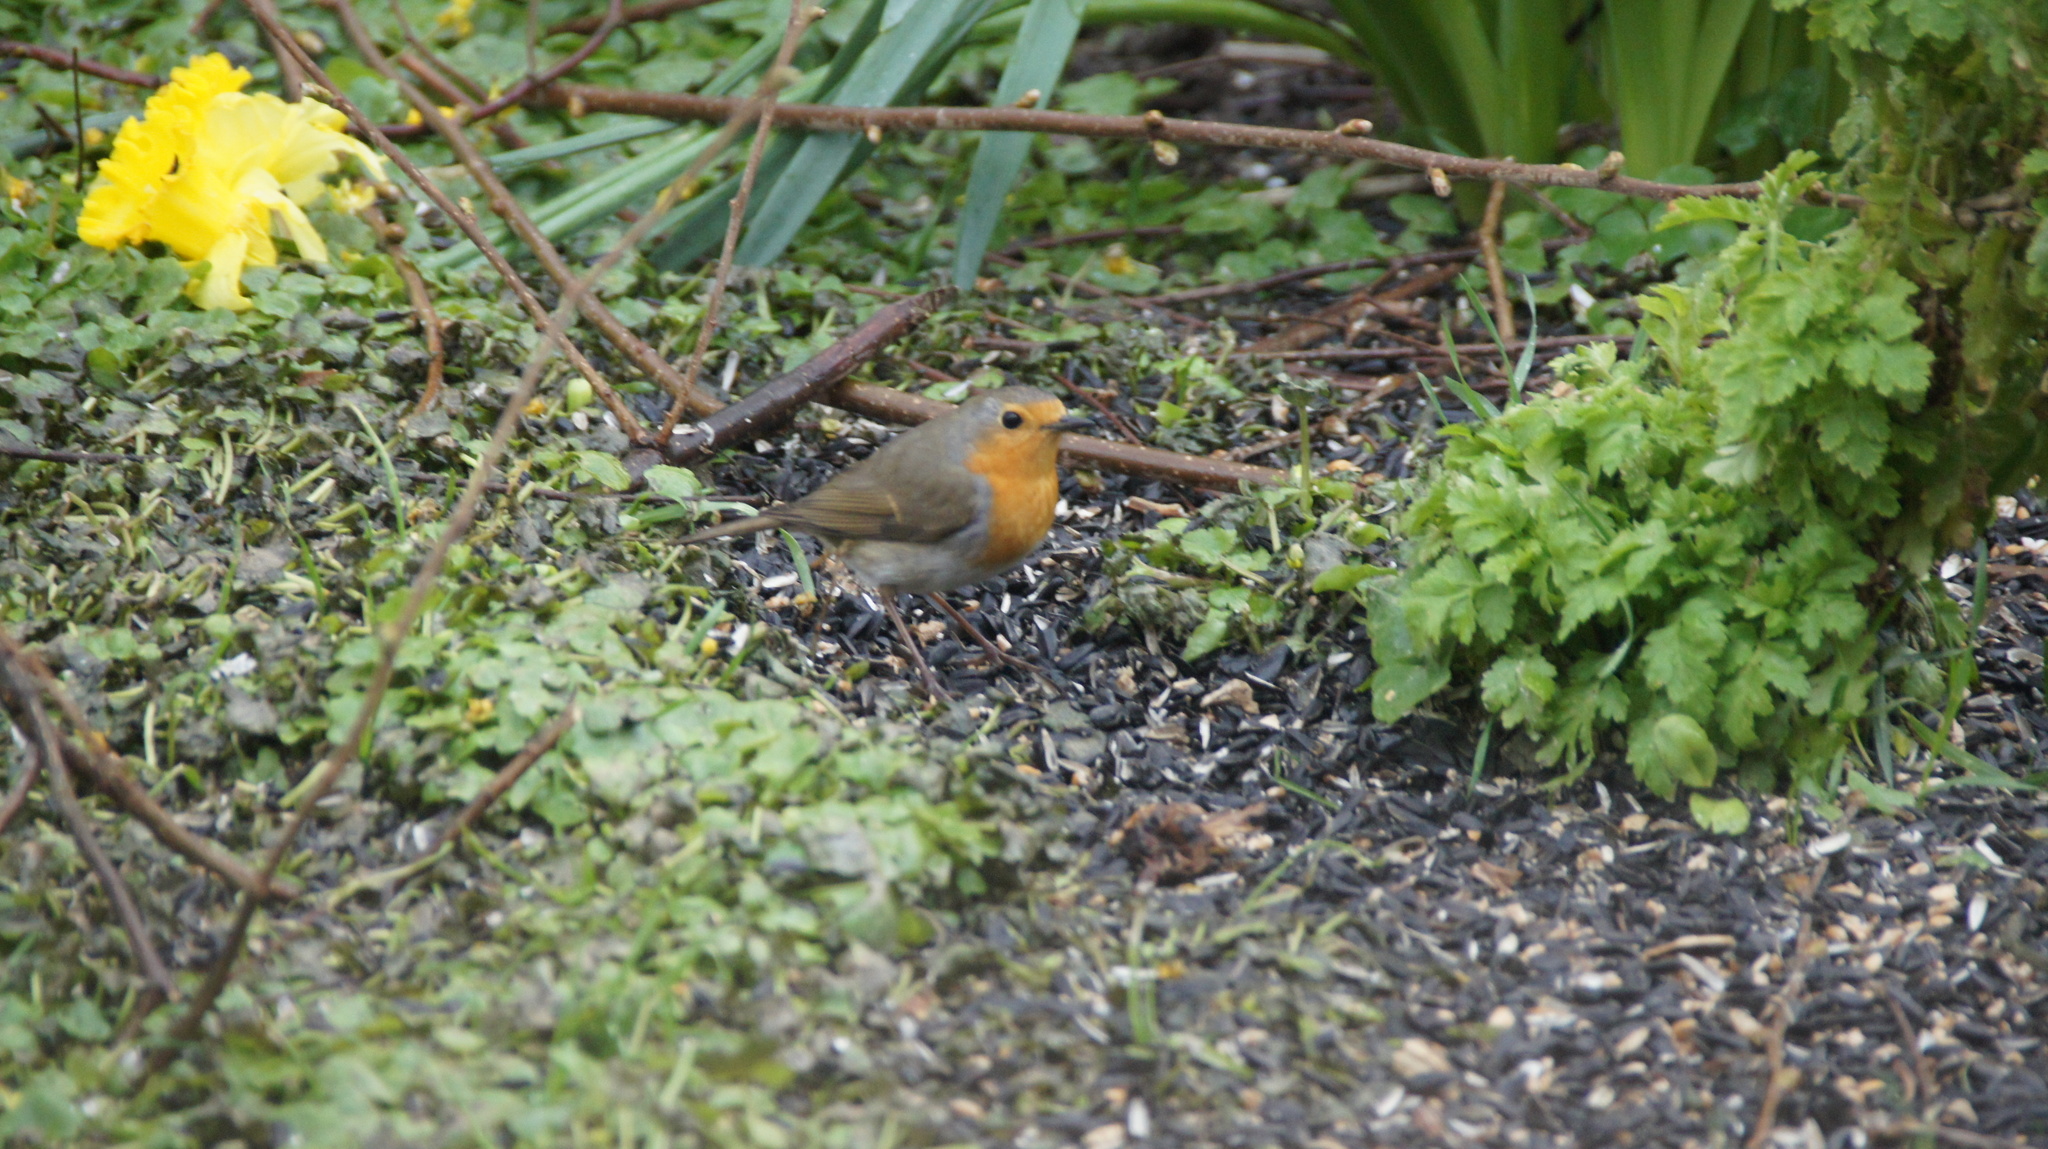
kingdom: Animalia
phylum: Chordata
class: Aves
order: Passeriformes
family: Muscicapidae
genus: Erithacus
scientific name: Erithacus rubecula
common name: European robin
